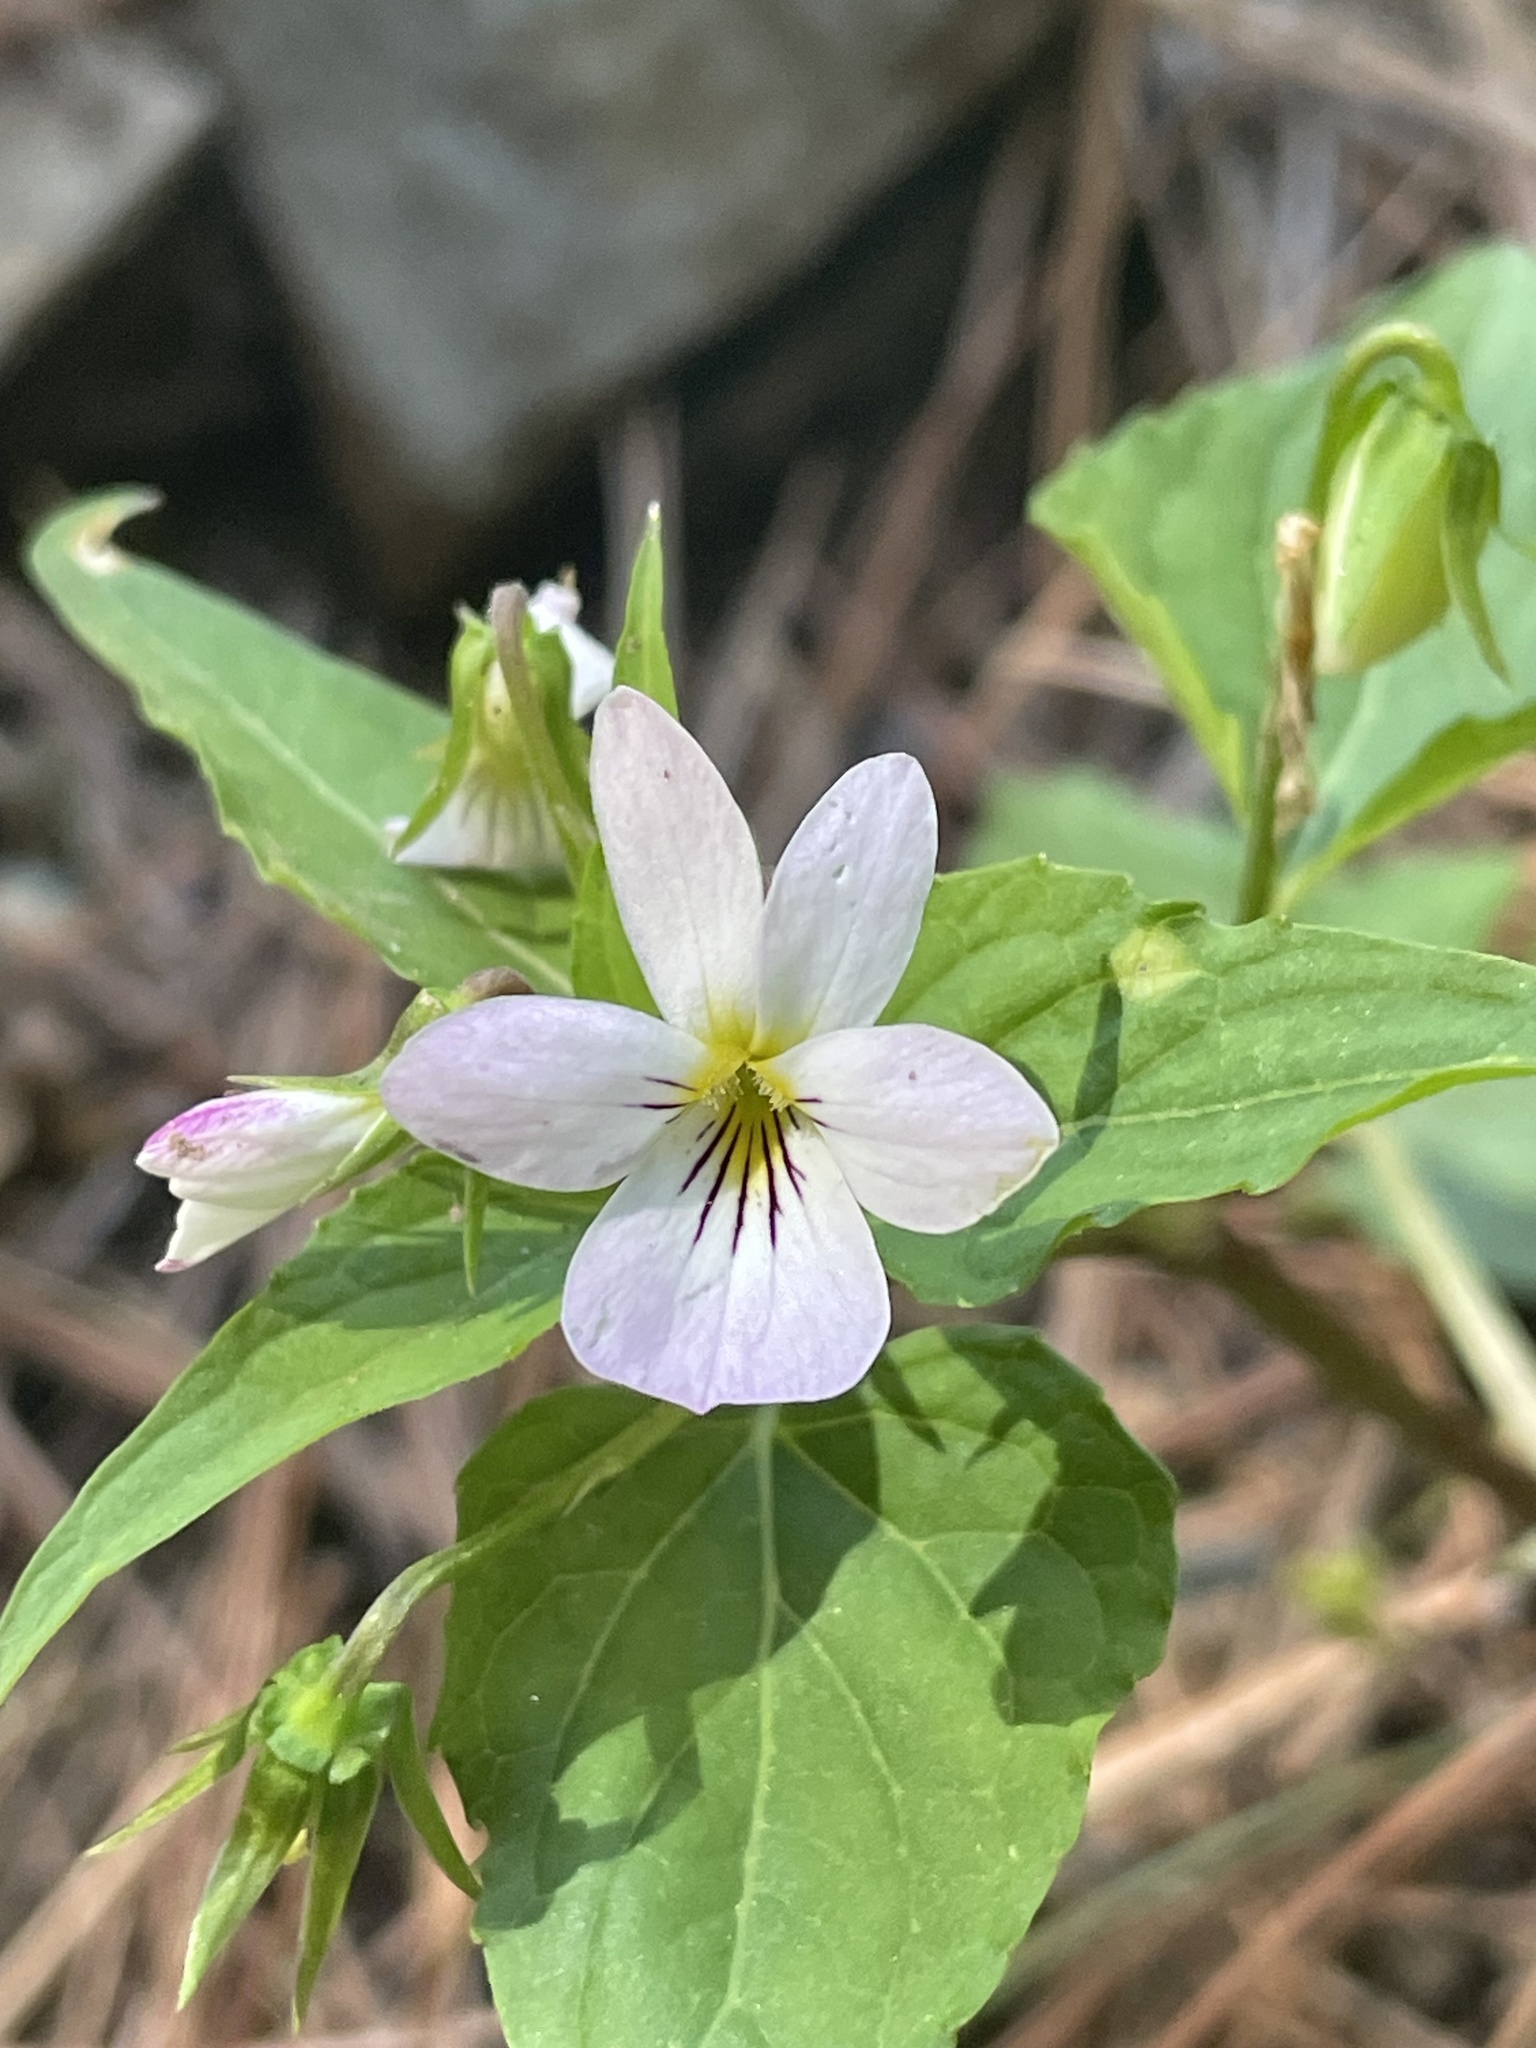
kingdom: Plantae
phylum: Tracheophyta
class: Magnoliopsida
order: Malpighiales
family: Violaceae
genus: Viola
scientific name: Viola canadensis
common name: Canada violet
